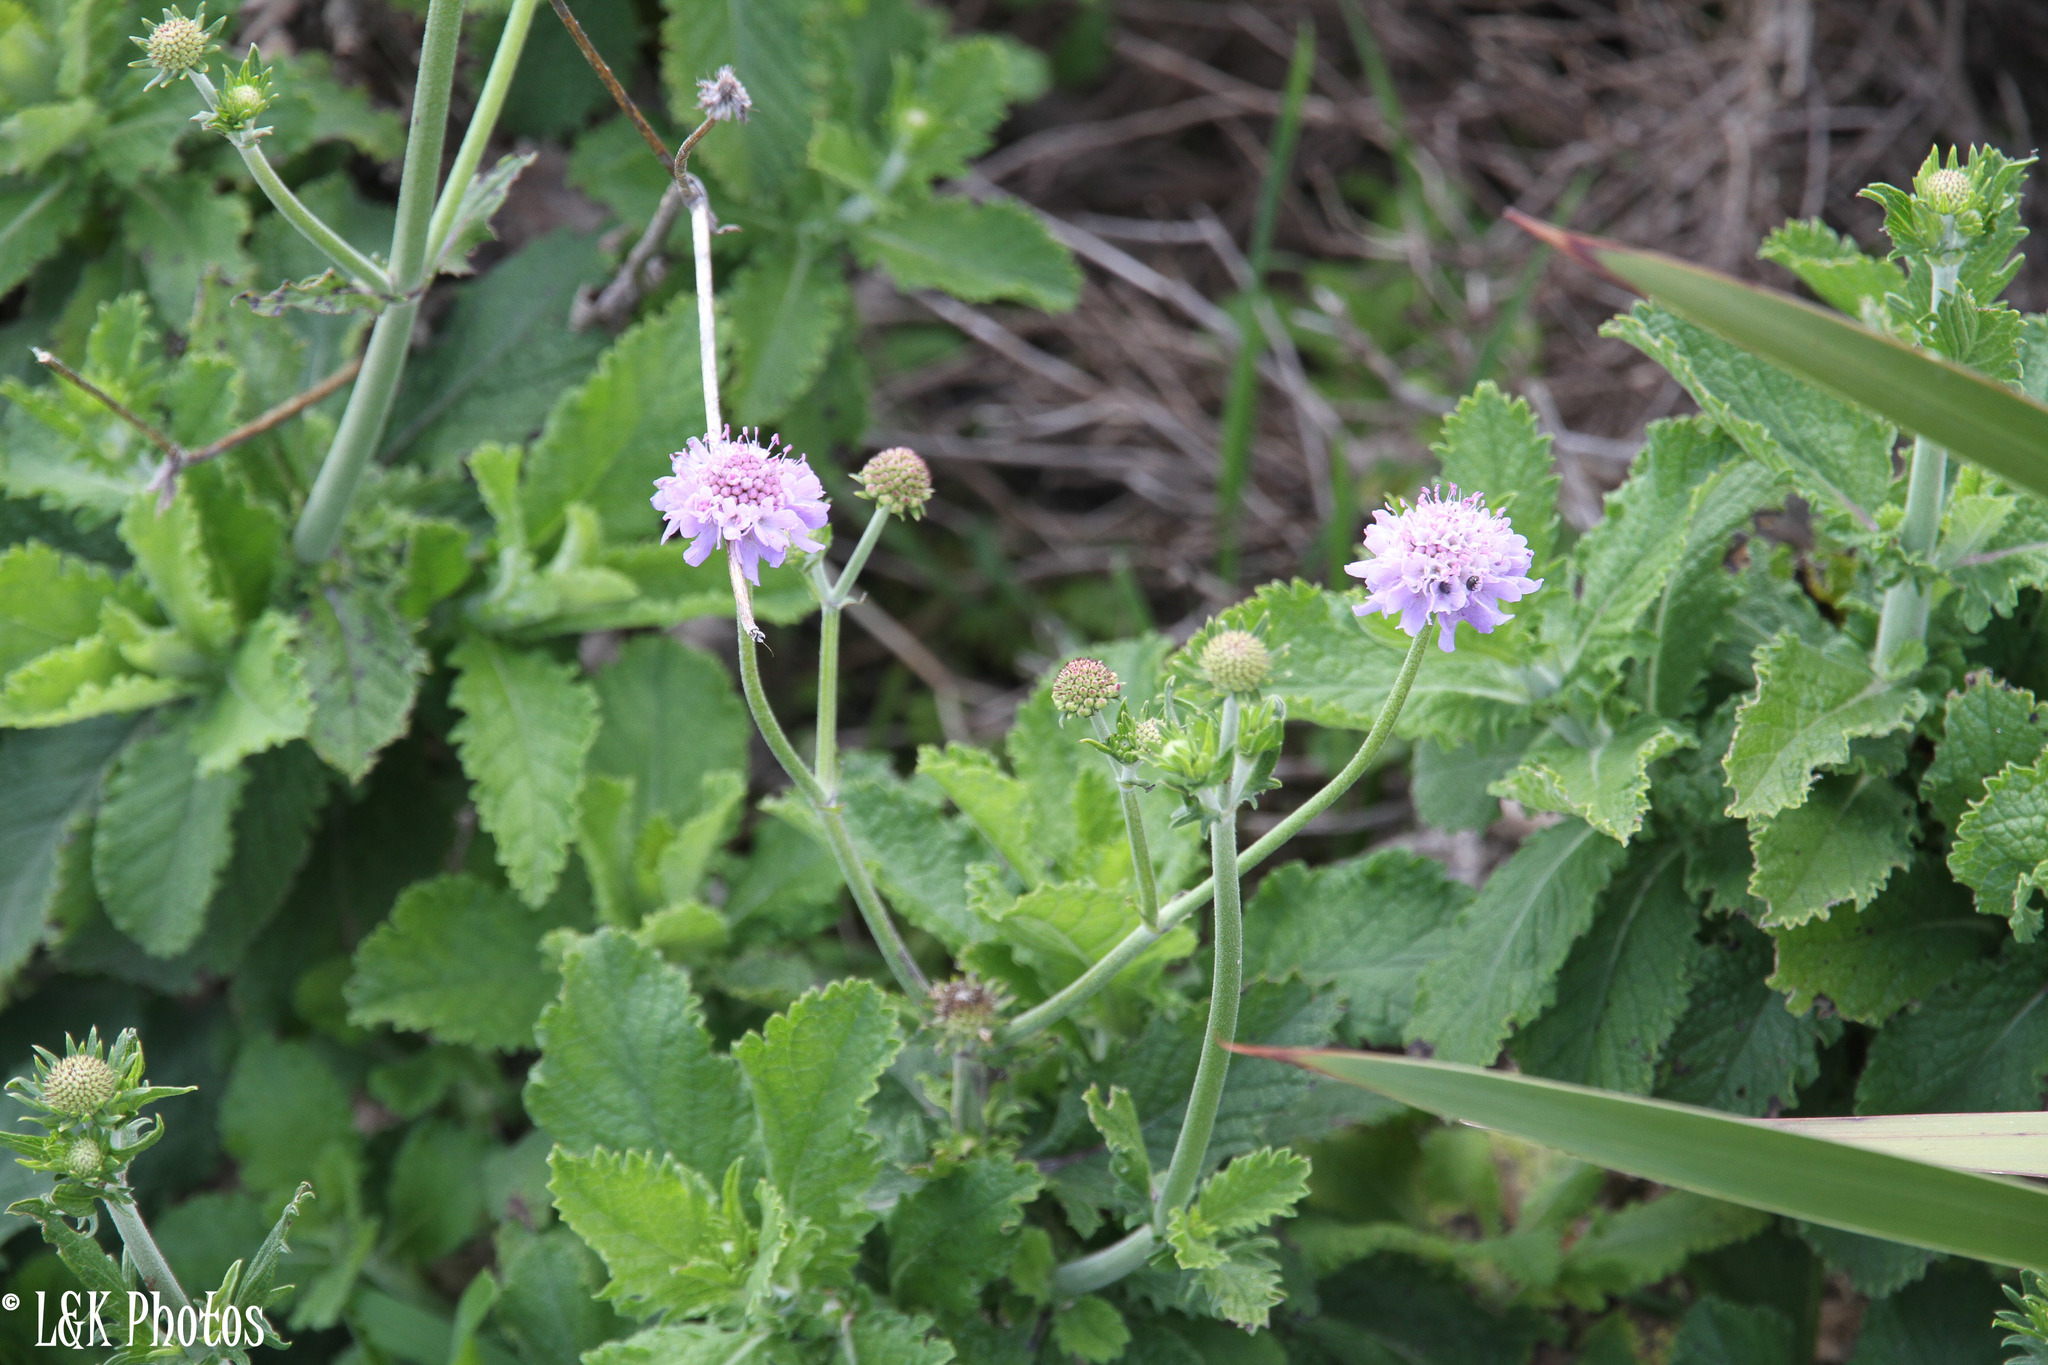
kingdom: Plantae
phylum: Tracheophyta
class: Magnoliopsida
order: Dipsacales
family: Caprifoliaceae
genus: Scabiosa
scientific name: Scabiosa africana
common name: Cape scabious
